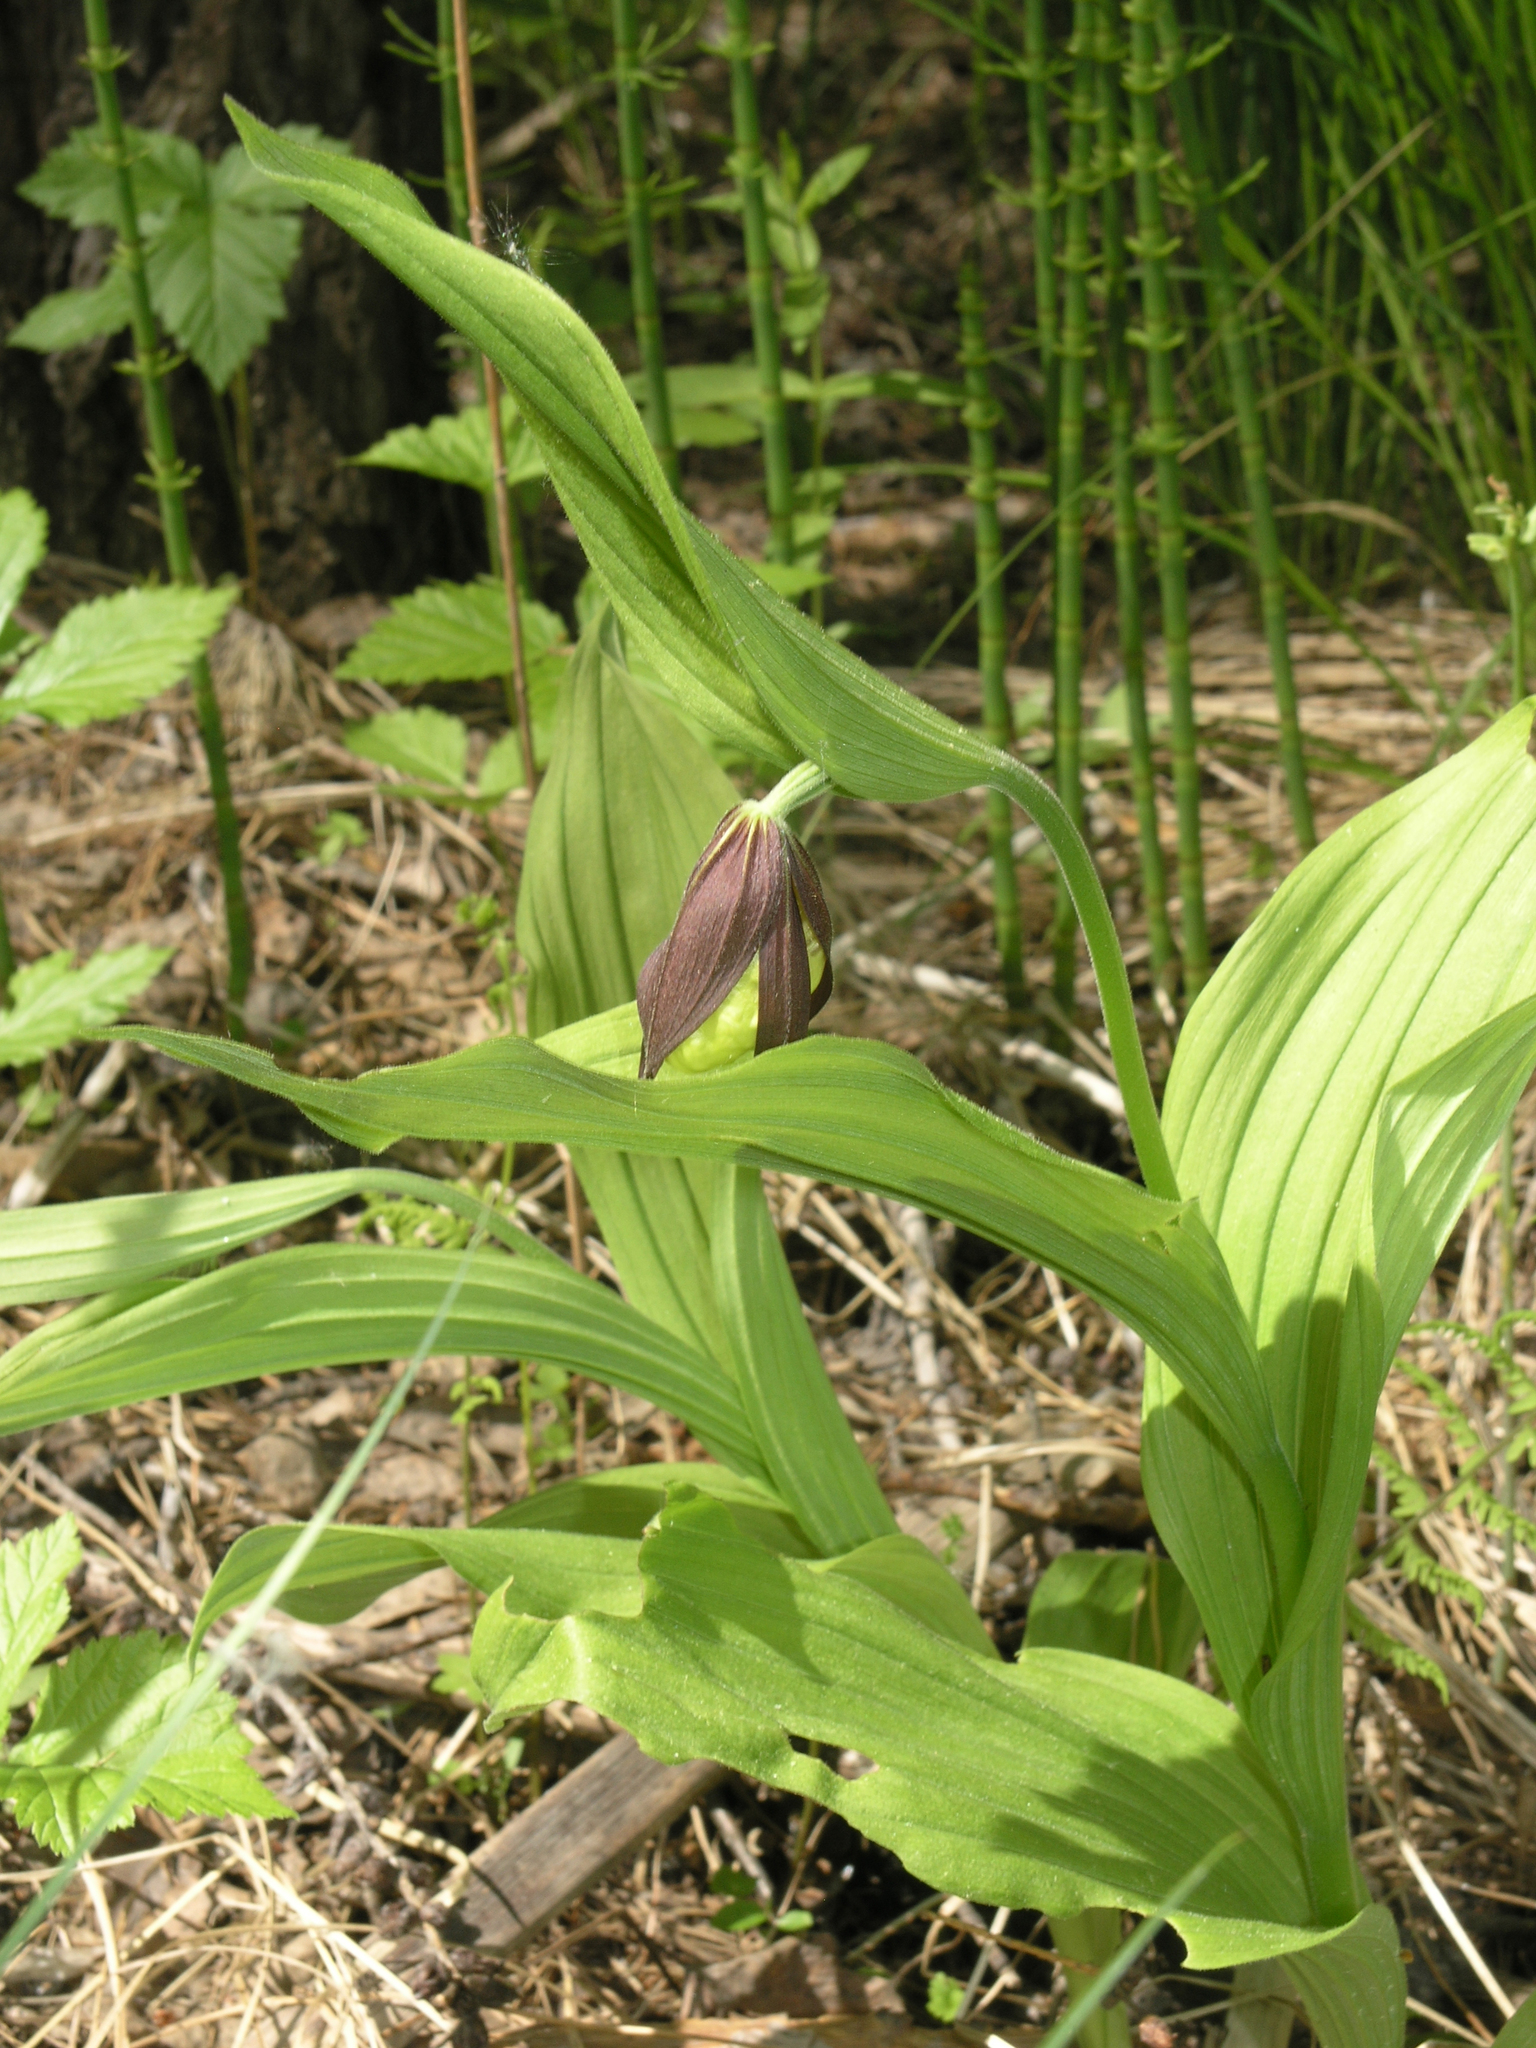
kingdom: Plantae
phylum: Tracheophyta
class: Liliopsida
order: Asparagales
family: Orchidaceae
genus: Cypripedium
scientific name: Cypripedium calceolus
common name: Lady's-slipper
